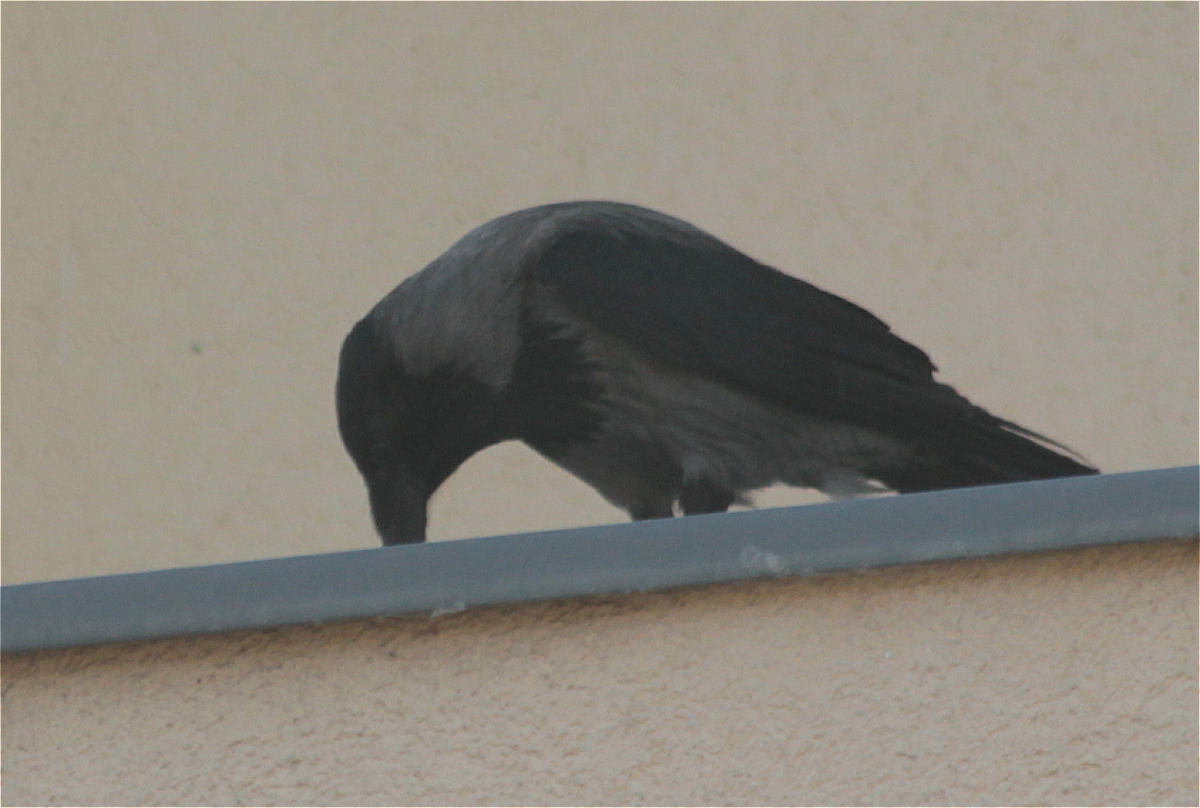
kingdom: Animalia
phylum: Chordata
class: Aves
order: Passeriformes
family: Corvidae
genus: Corvus
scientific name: Corvus cornix
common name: Hooded crow
